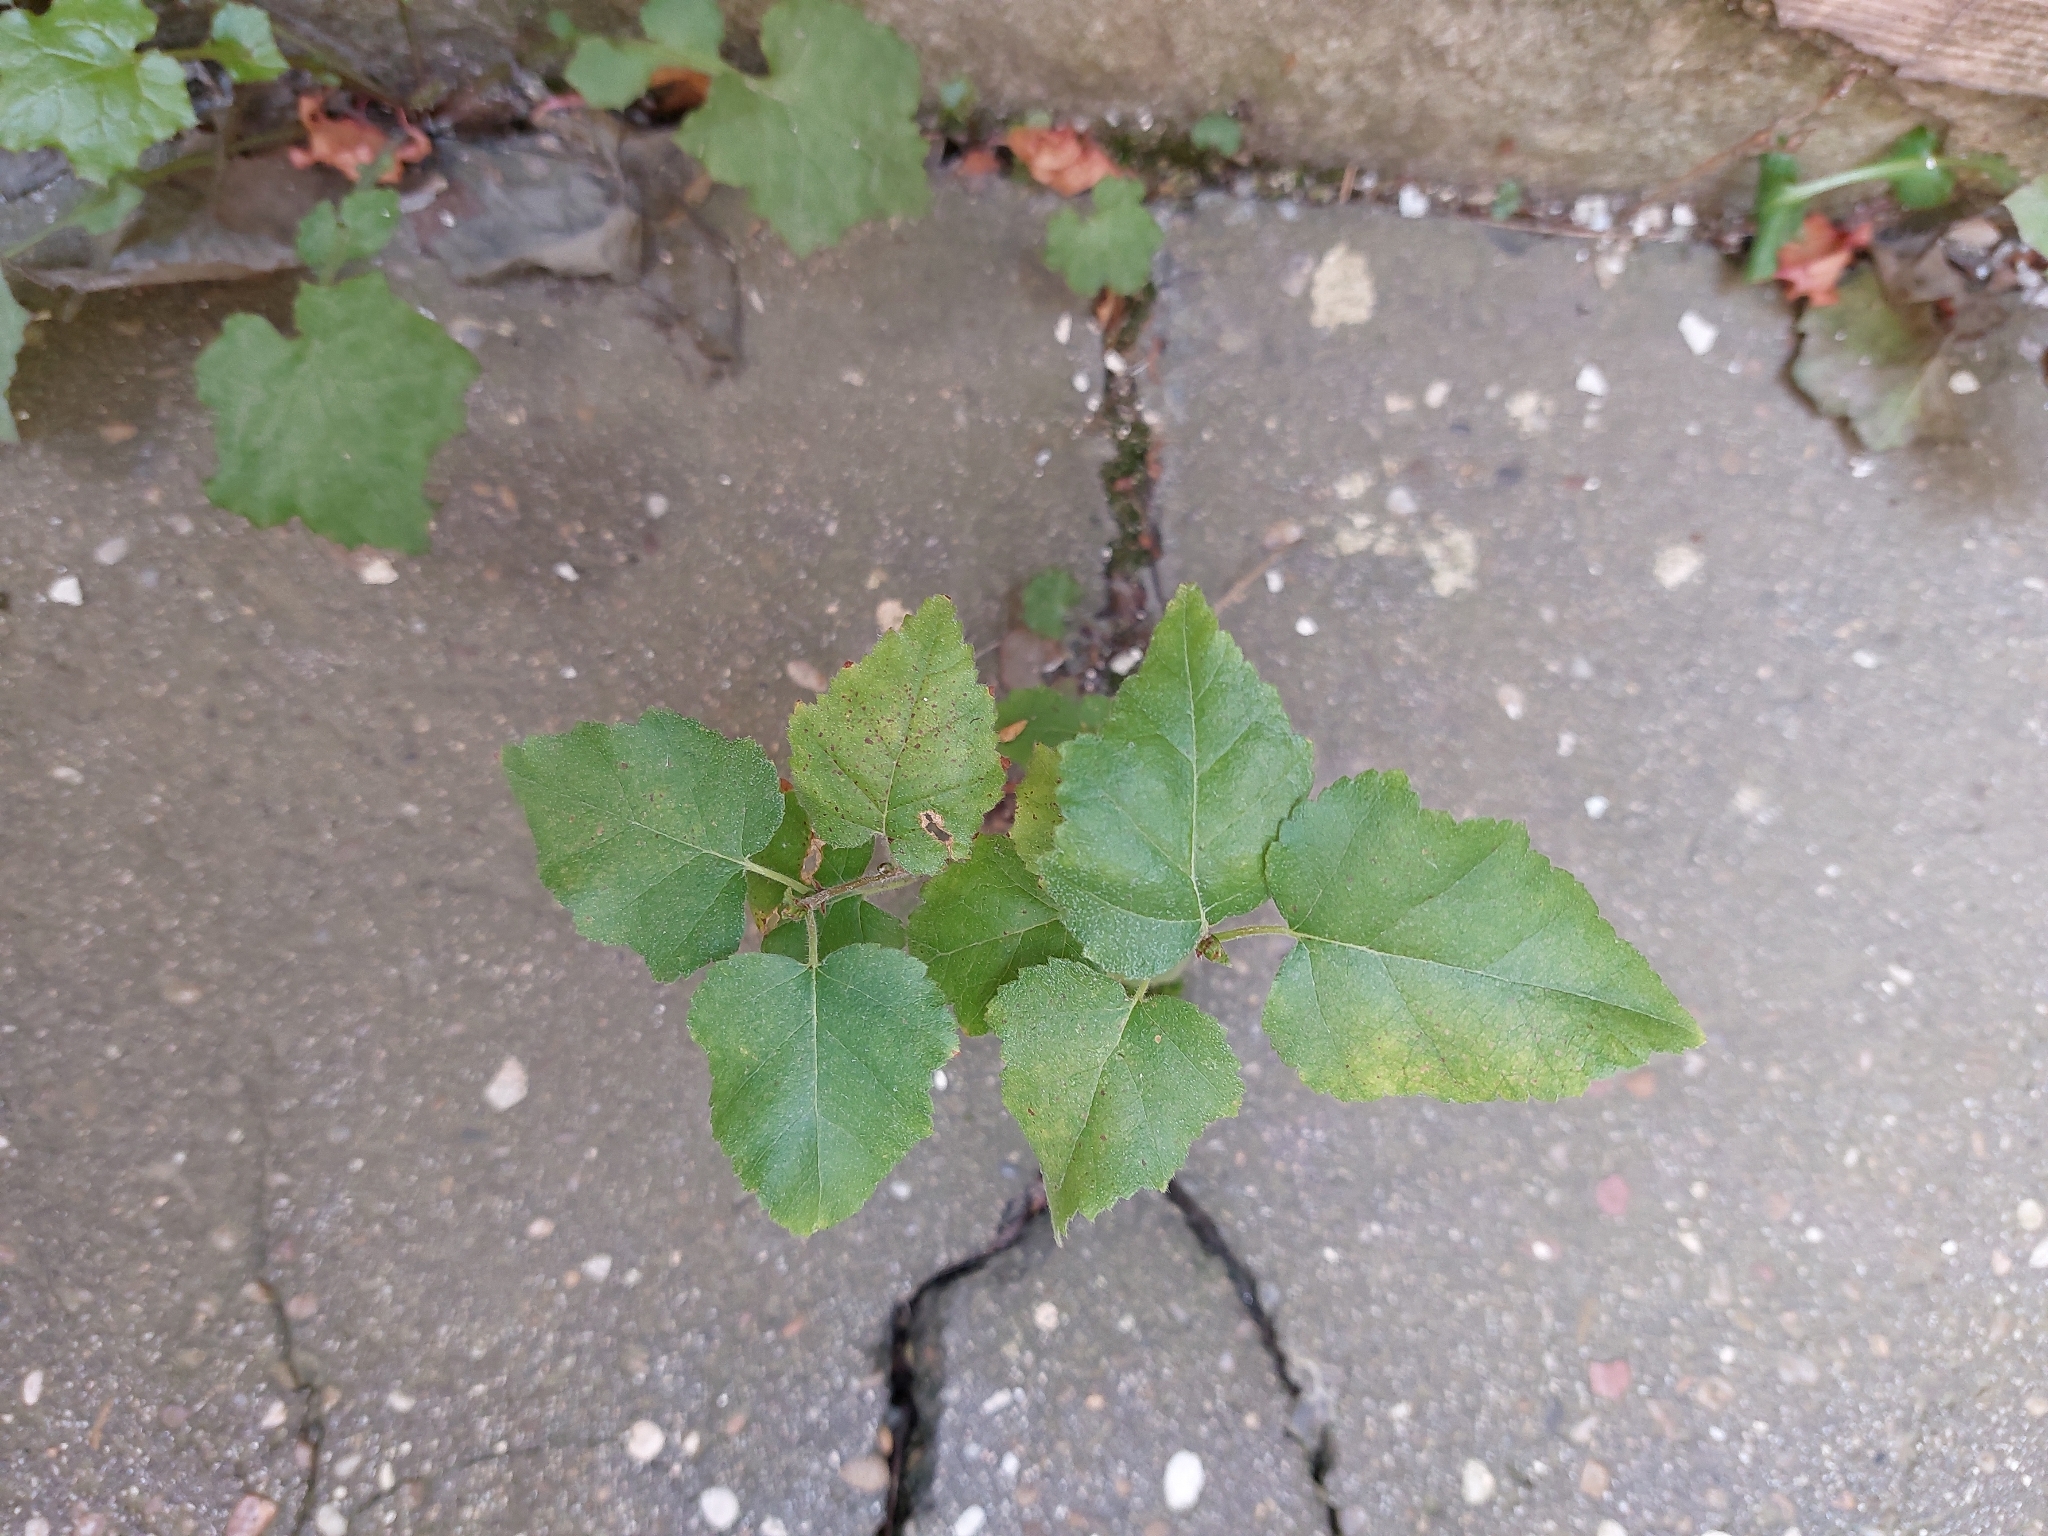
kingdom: Plantae
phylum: Tracheophyta
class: Magnoliopsida
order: Fagales
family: Betulaceae
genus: Betula
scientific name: Betula pendula
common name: Silver birch
